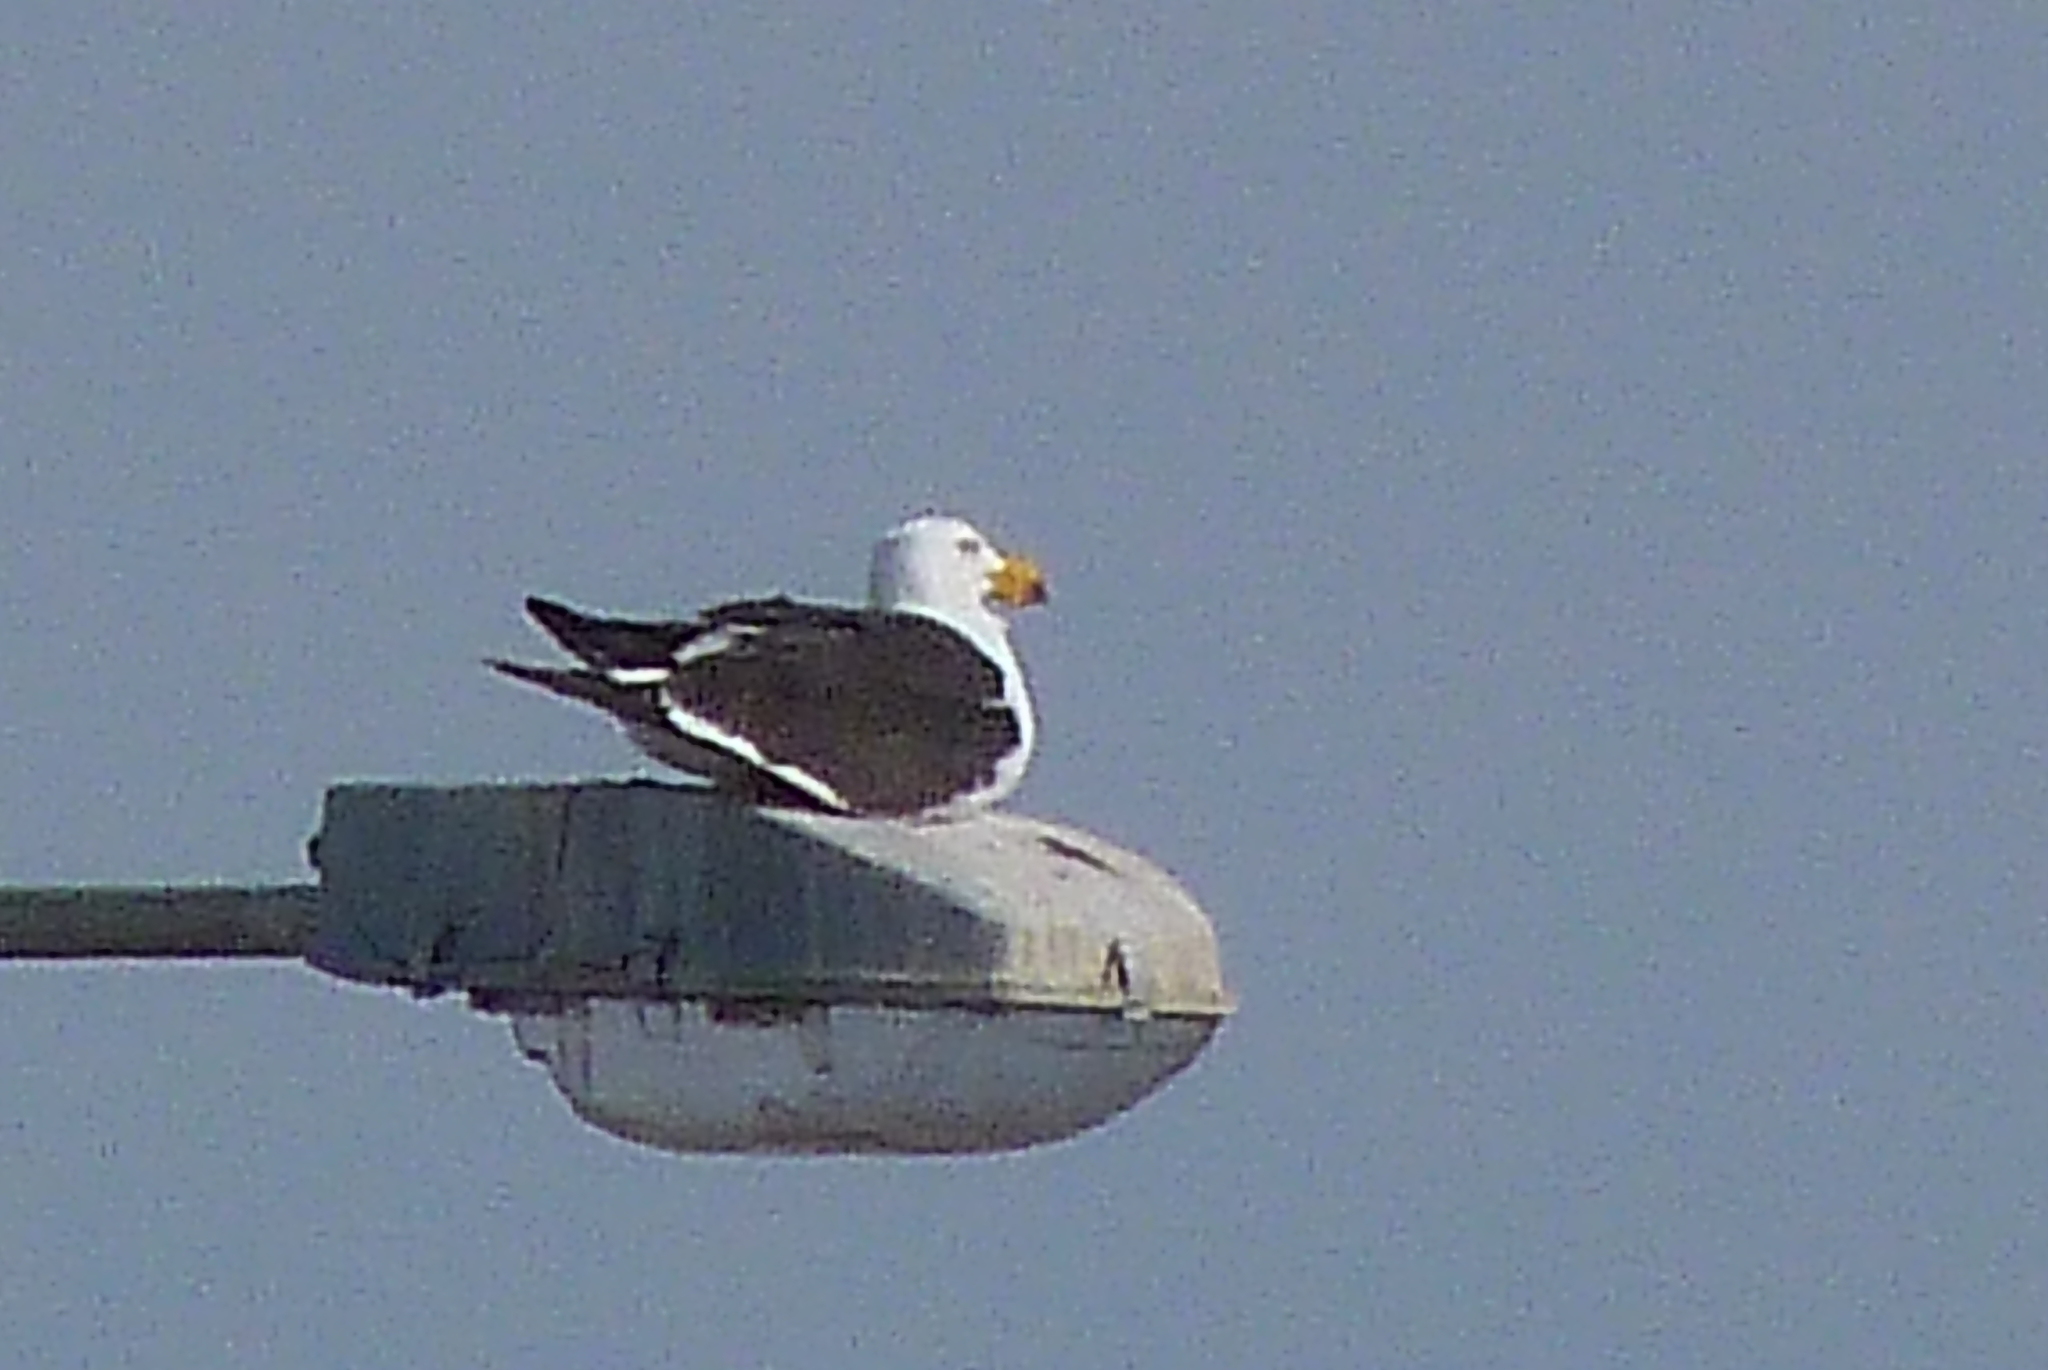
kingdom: Animalia
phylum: Chordata
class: Aves
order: Charadriiformes
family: Laridae
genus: Larus
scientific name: Larus pacificus
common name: Pacific gull
